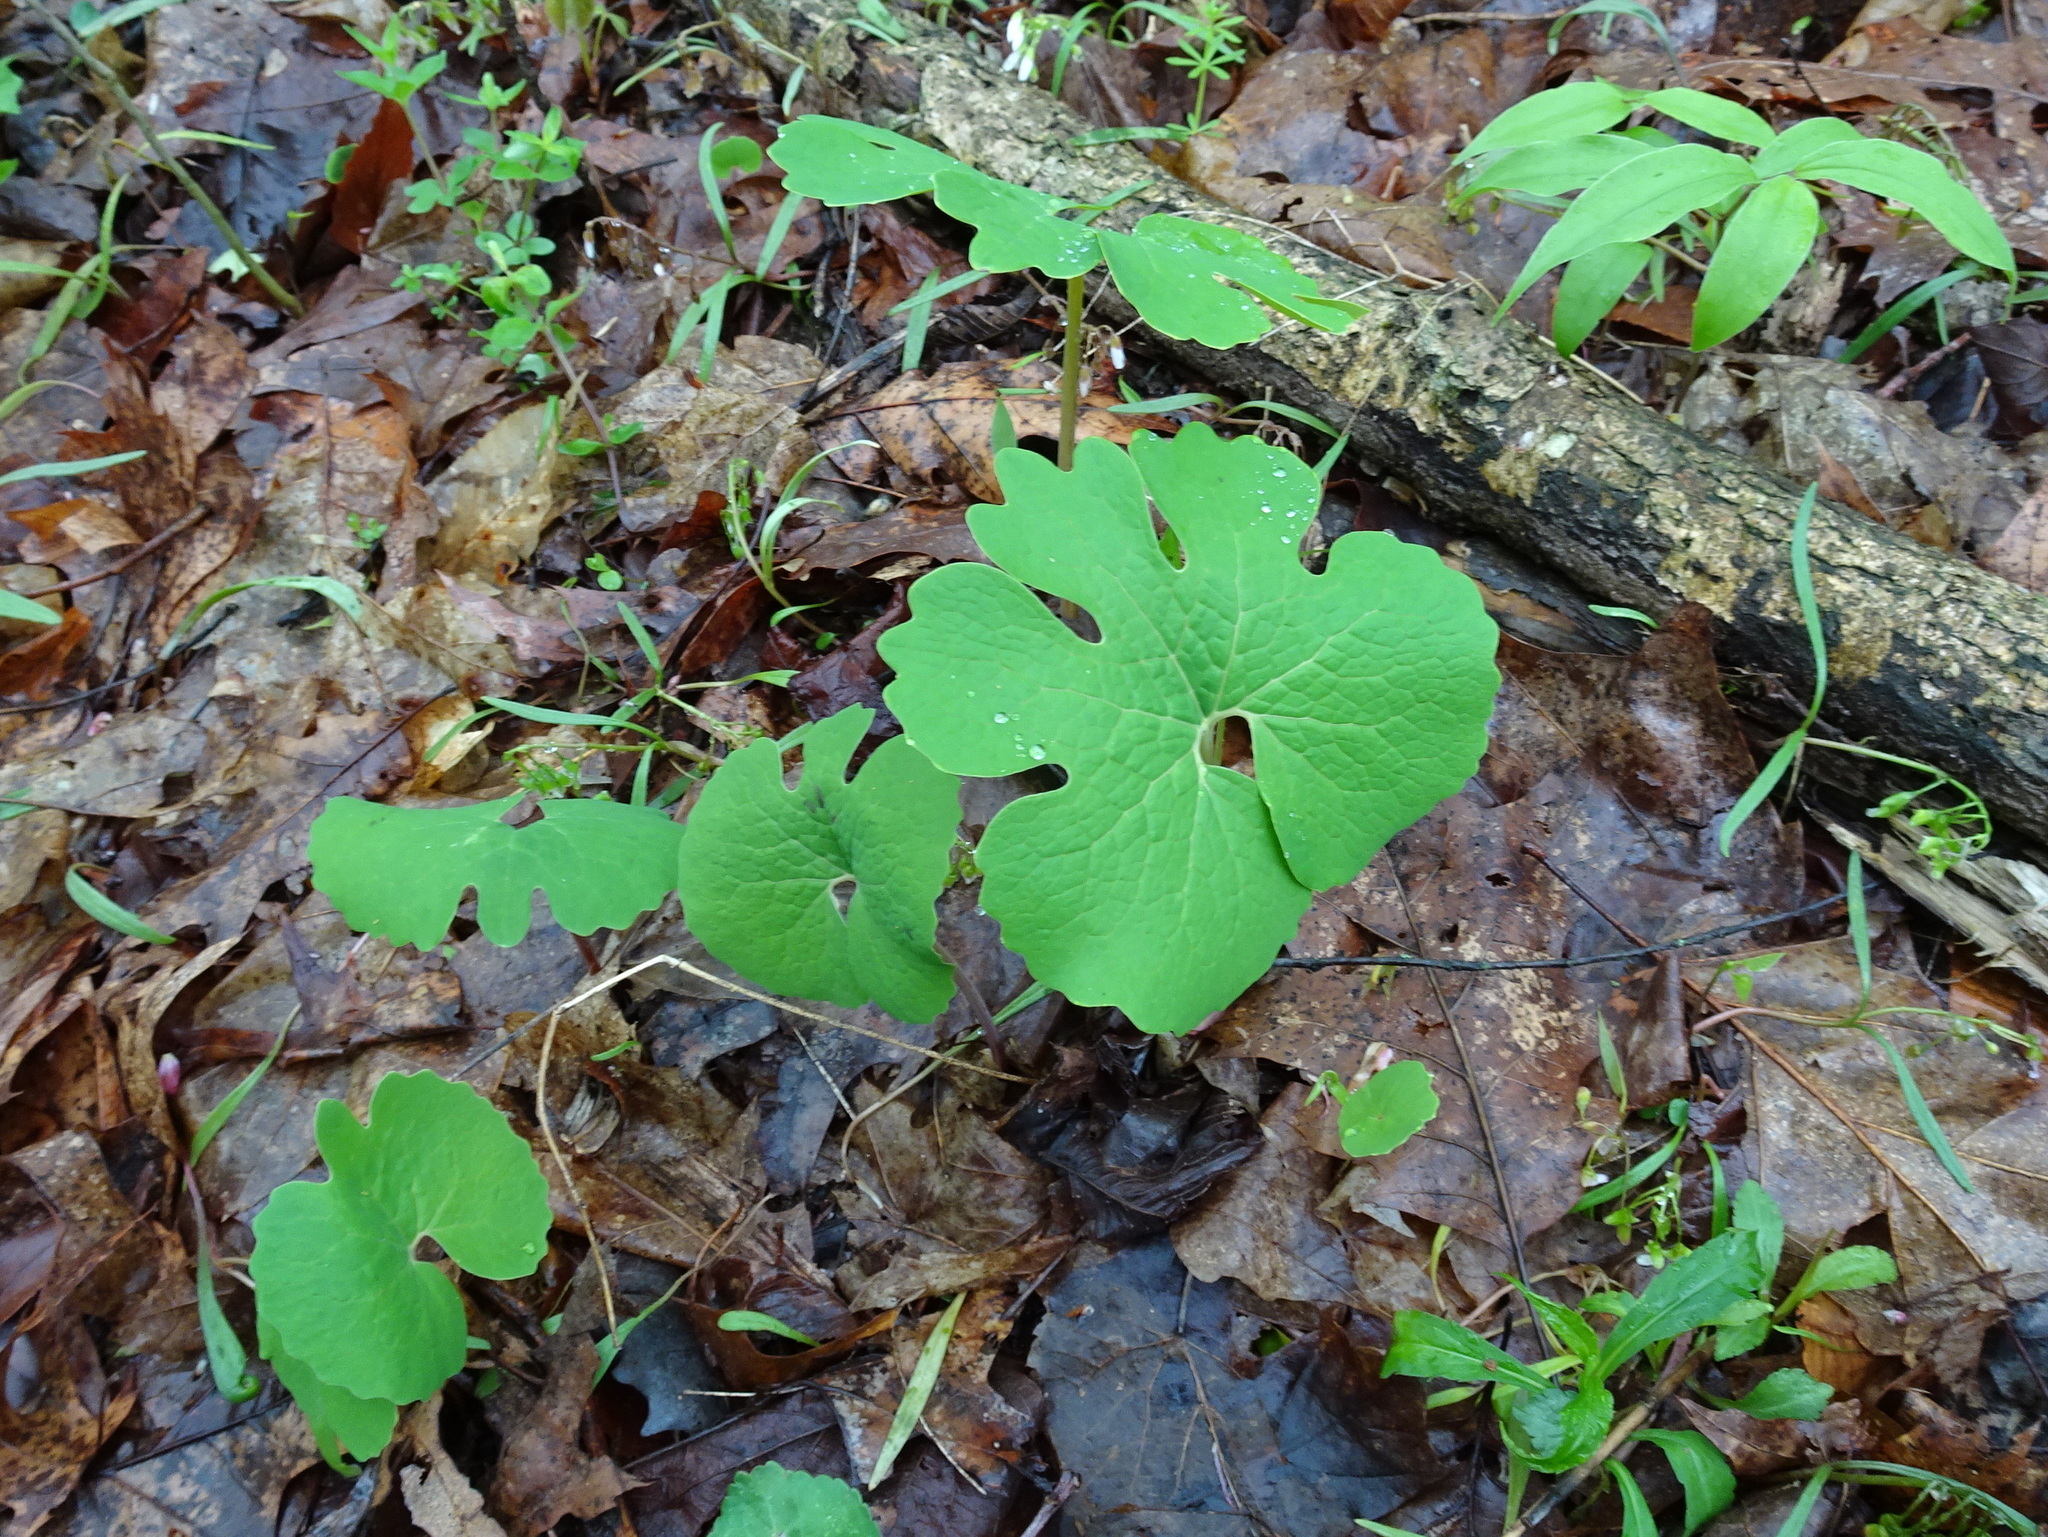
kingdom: Plantae
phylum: Tracheophyta
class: Magnoliopsida
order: Ranunculales
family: Papaveraceae
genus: Sanguinaria
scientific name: Sanguinaria canadensis
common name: Bloodroot
